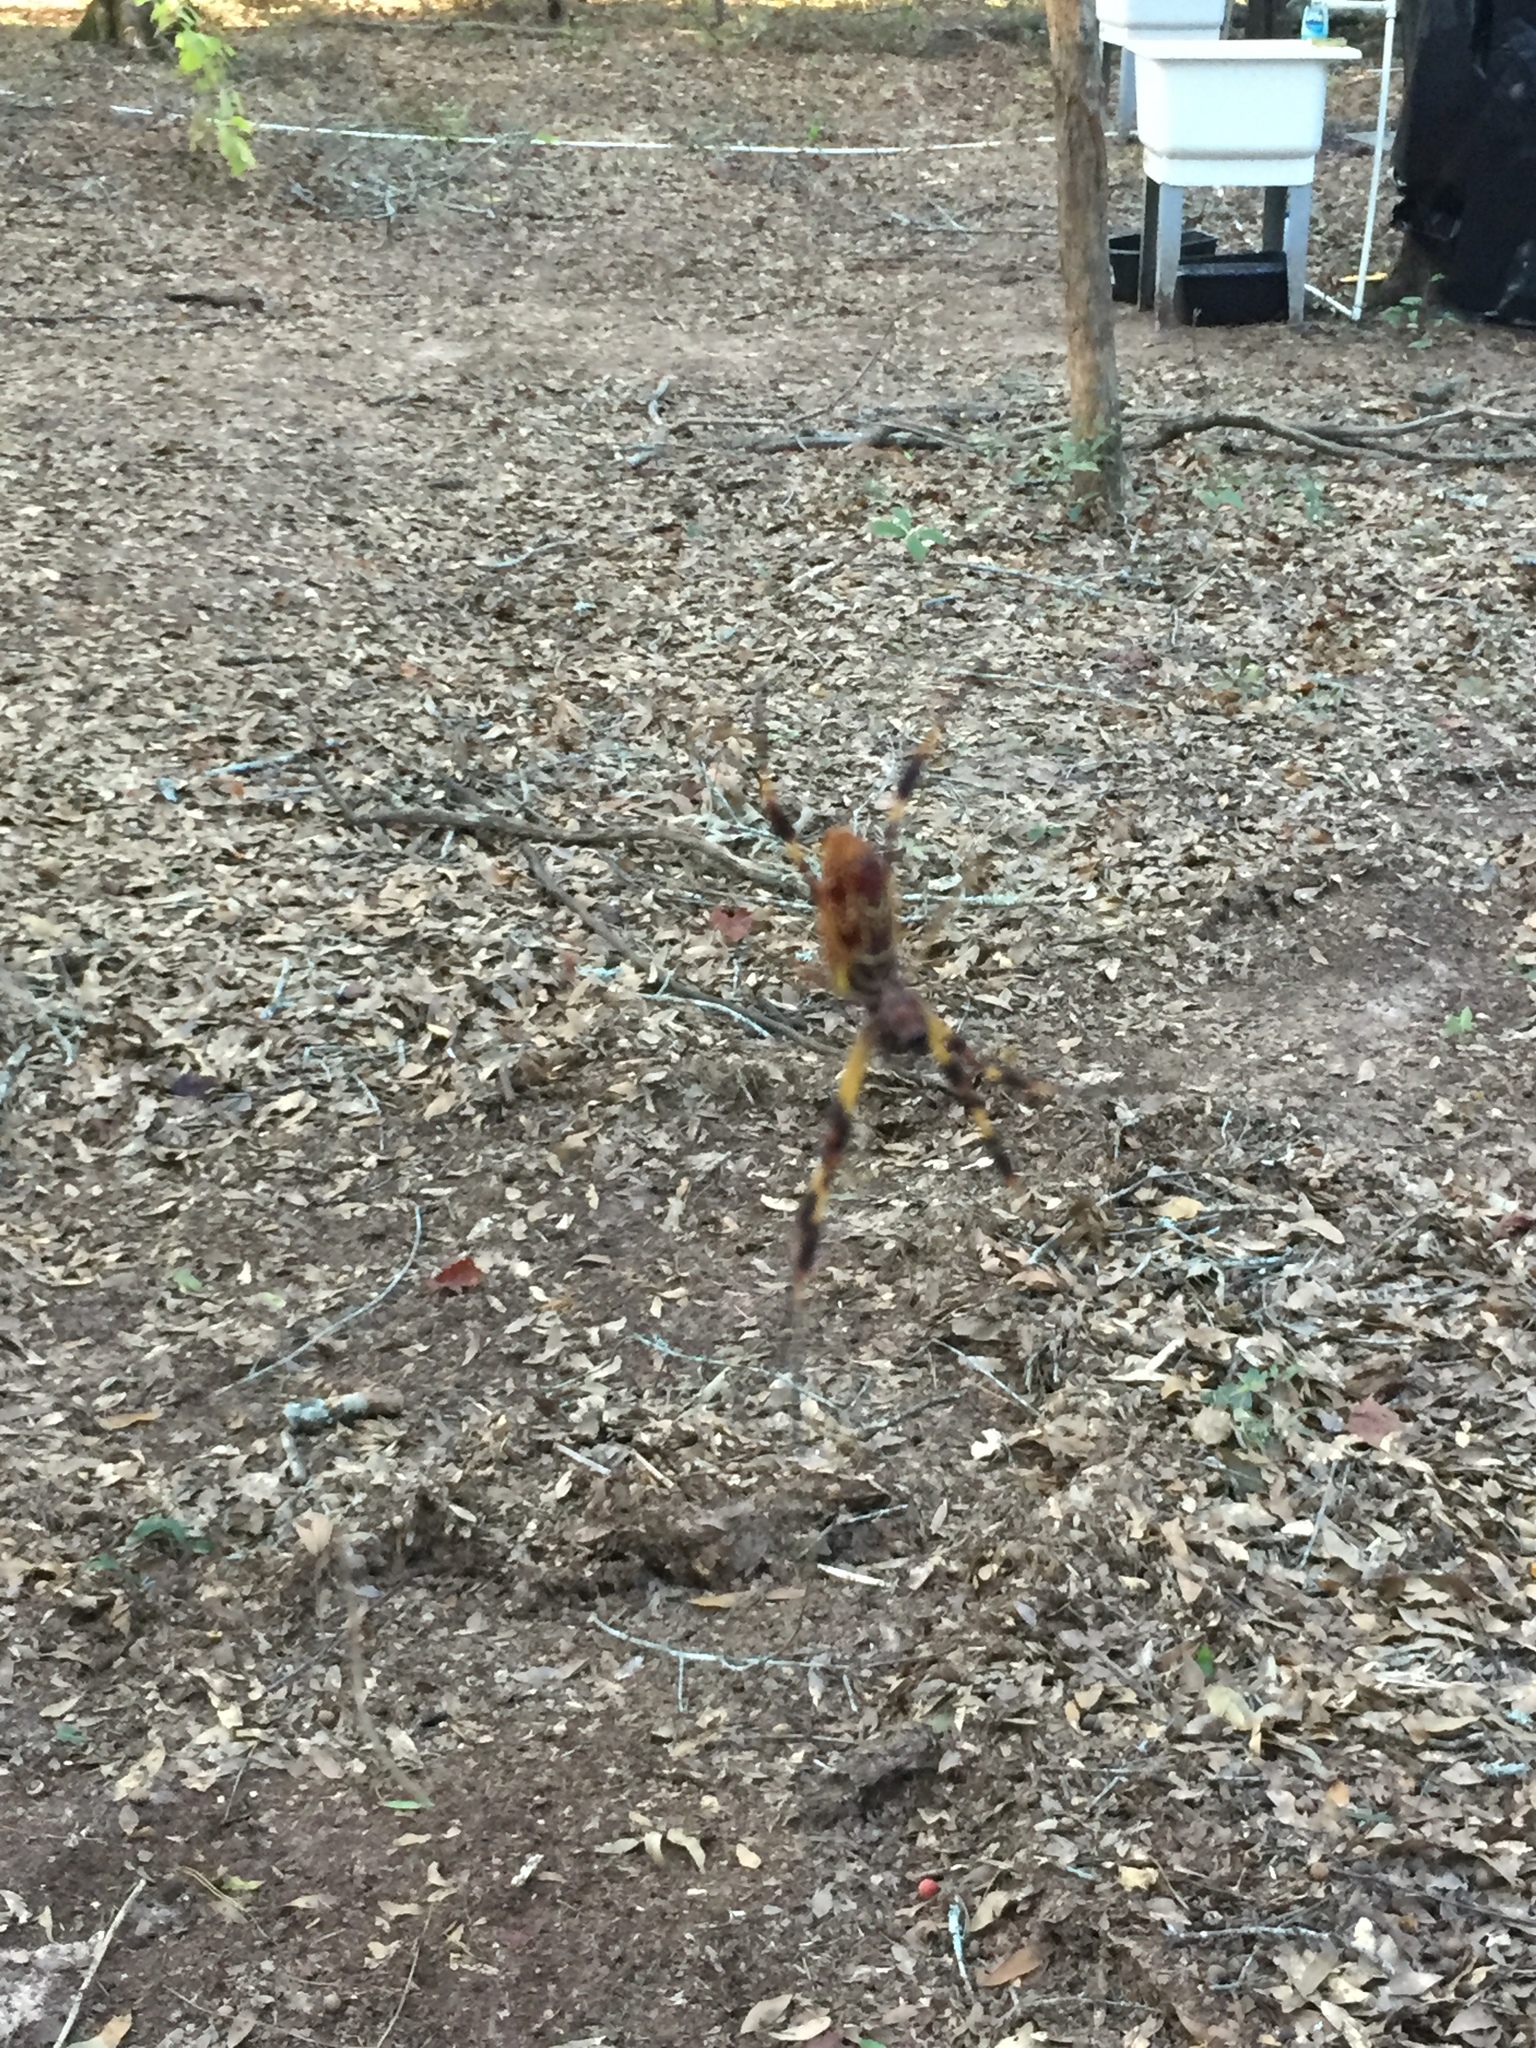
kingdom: Animalia
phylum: Arthropoda
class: Arachnida
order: Araneae
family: Araneidae
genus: Trichonephila
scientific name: Trichonephila clavipes
